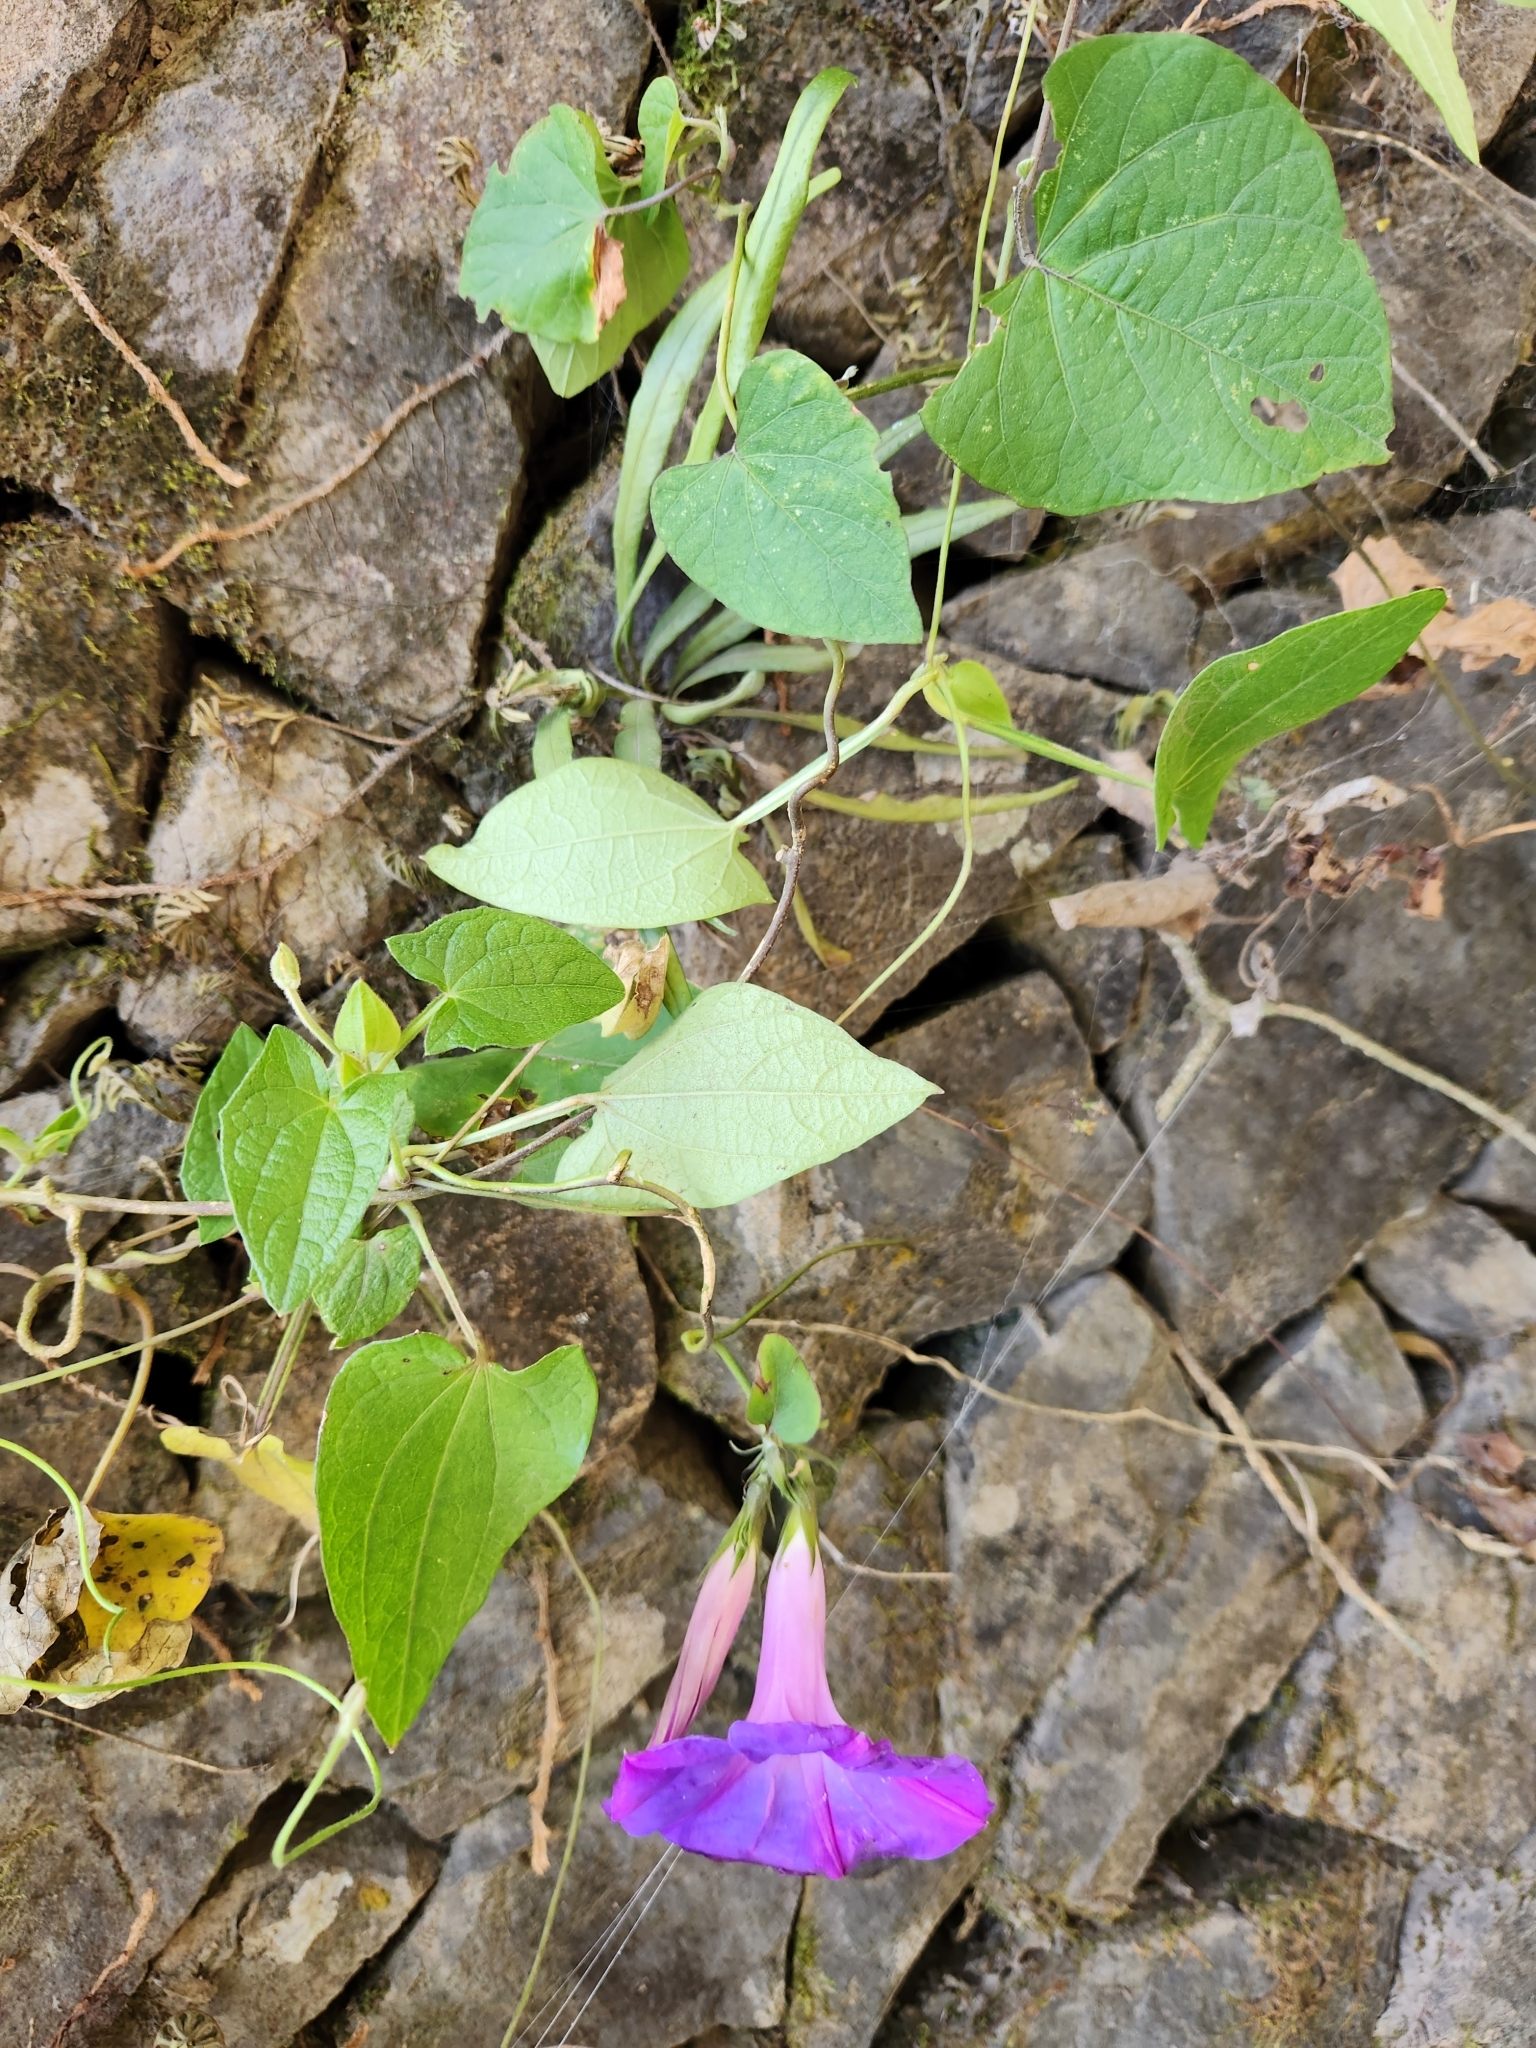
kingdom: Plantae
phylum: Tracheophyta
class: Magnoliopsida
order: Solanales
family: Convolvulaceae
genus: Ipomoea
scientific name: Ipomoea indica
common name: Blue dawnflower
